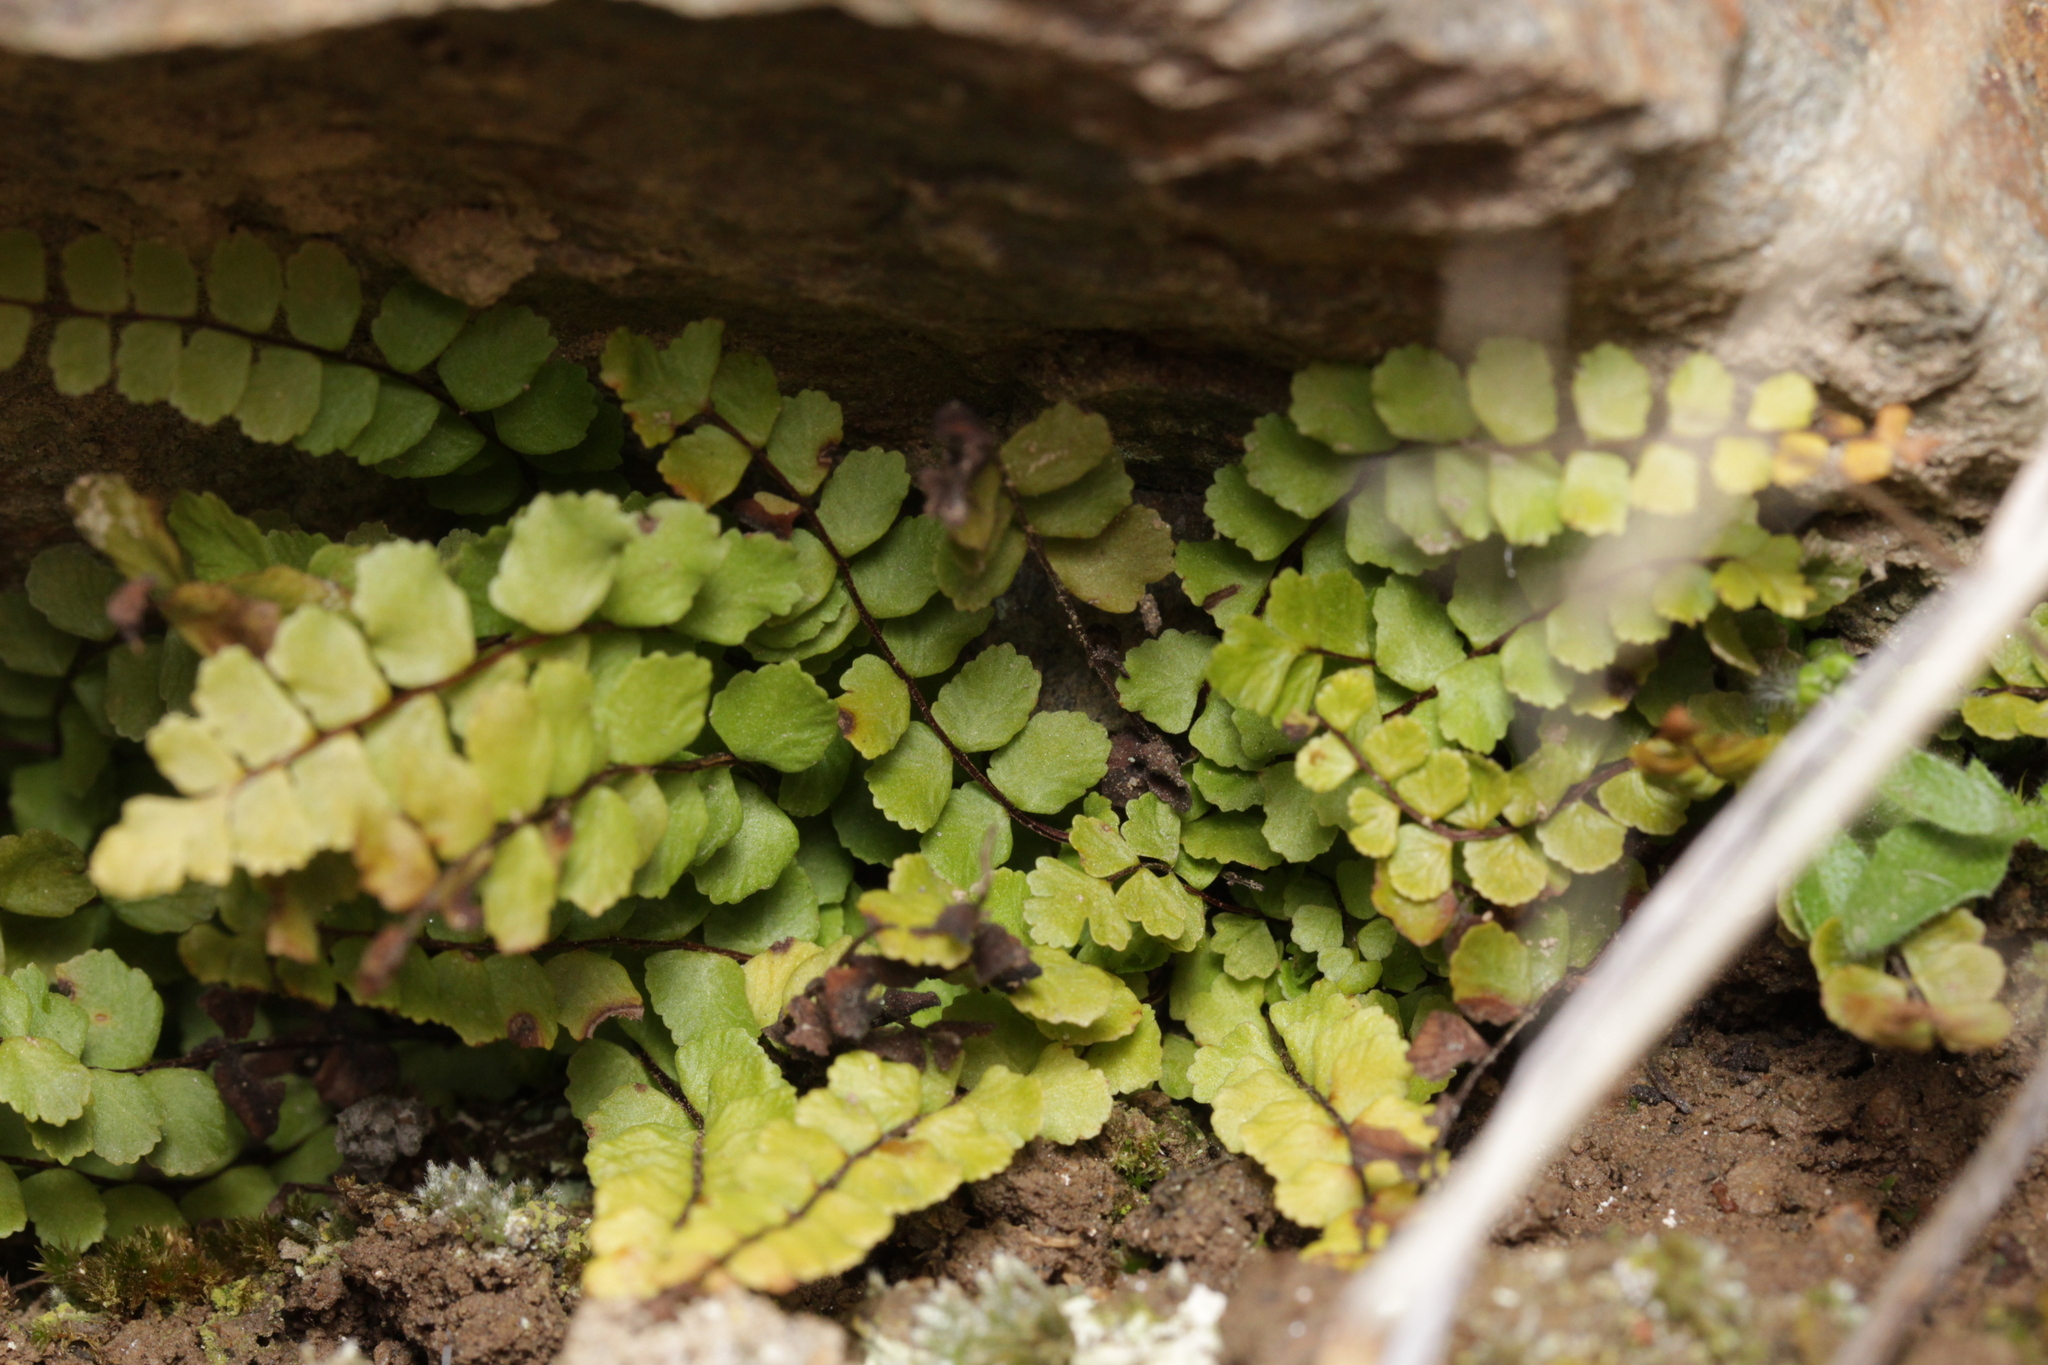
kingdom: Plantae
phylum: Tracheophyta
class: Polypodiopsida
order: Polypodiales
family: Aspleniaceae
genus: Asplenium
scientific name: Asplenium trichomanes
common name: Maidenhair spleenwort
